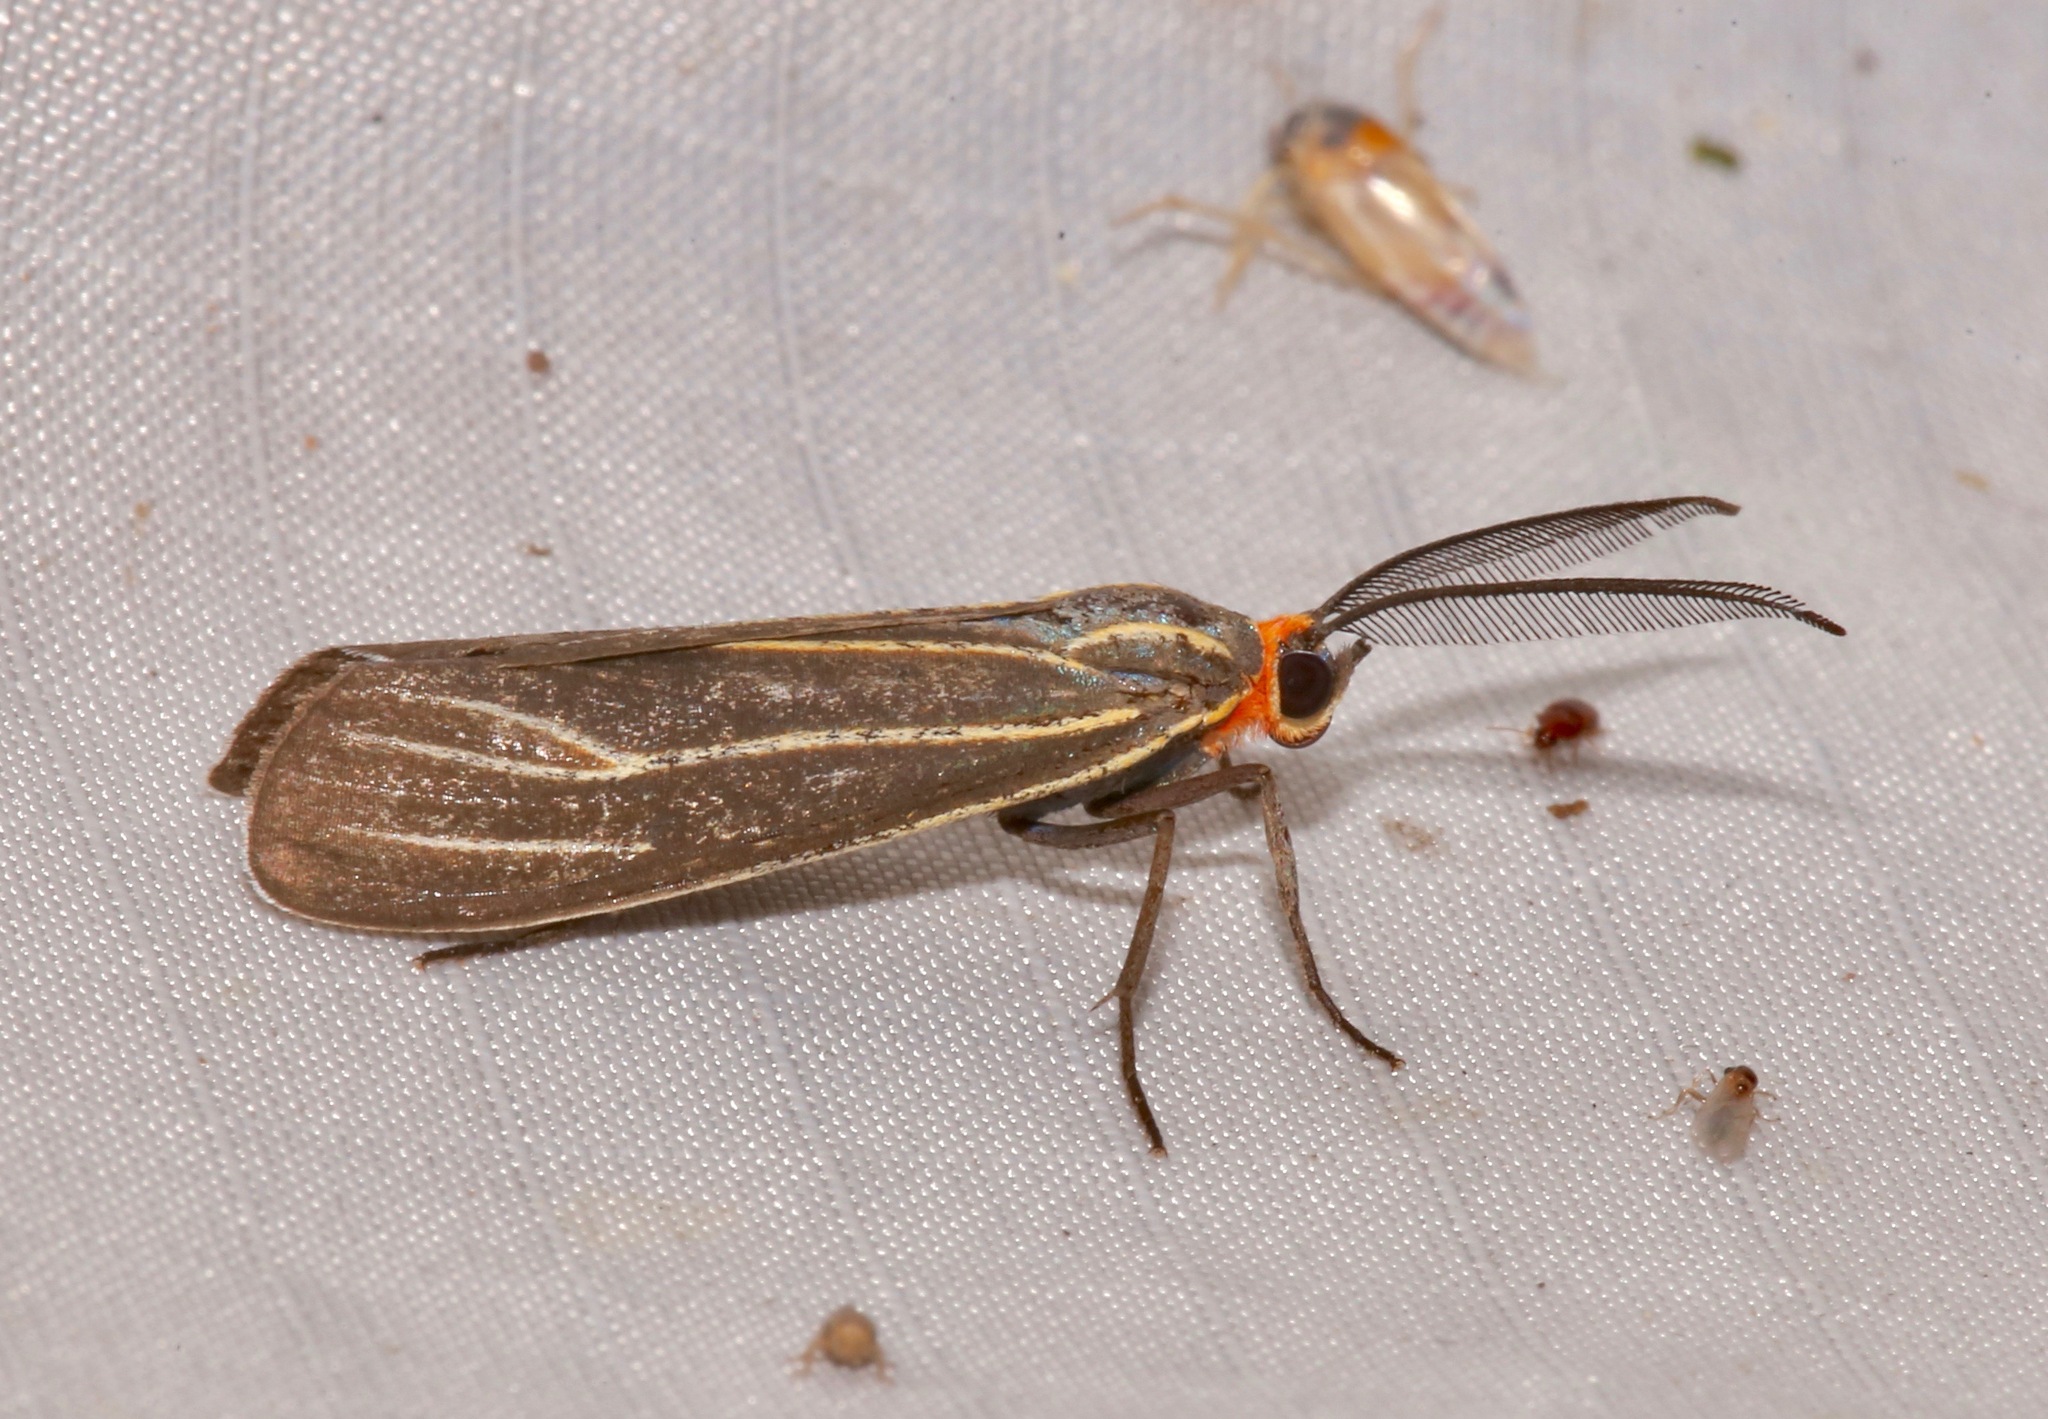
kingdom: Animalia
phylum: Arthropoda
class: Insecta
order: Lepidoptera
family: Erebidae
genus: Ctenucha
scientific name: Ctenucha venosa
